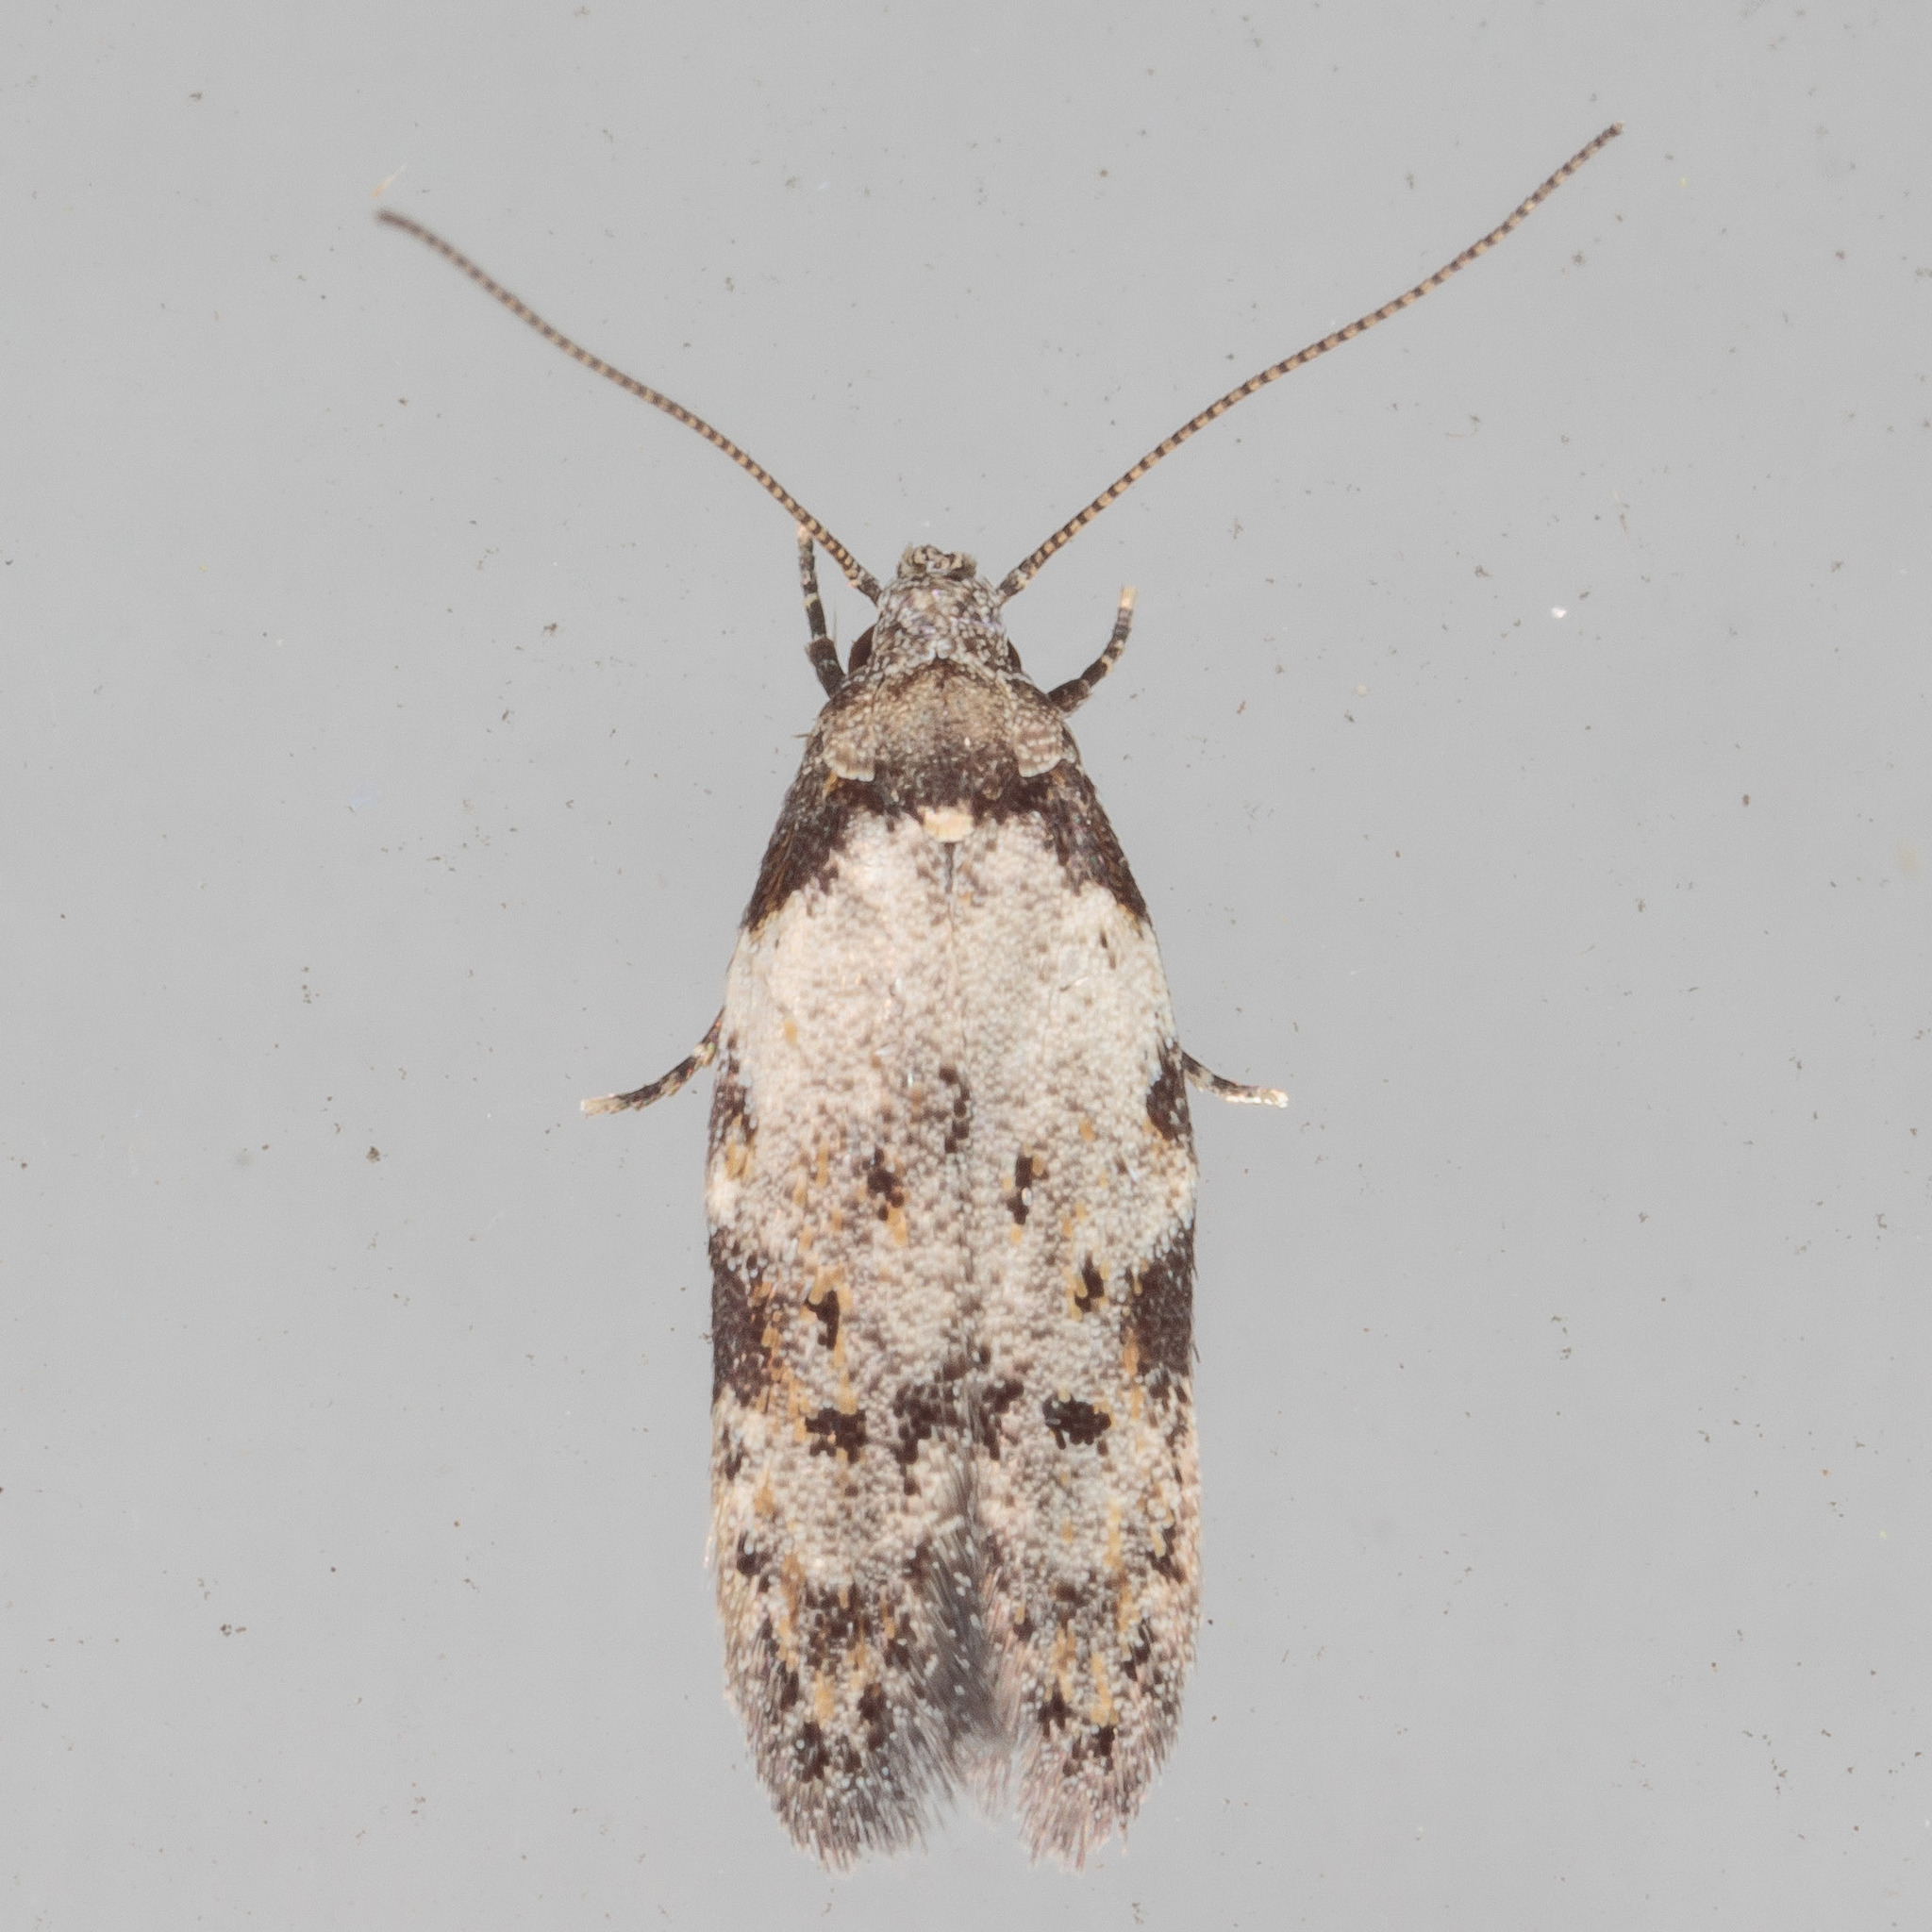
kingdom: Animalia
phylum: Arthropoda
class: Insecta
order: Lepidoptera
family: Autostichidae
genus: Taygete
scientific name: Taygete attributella
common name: Triangle-marked twirler moth
